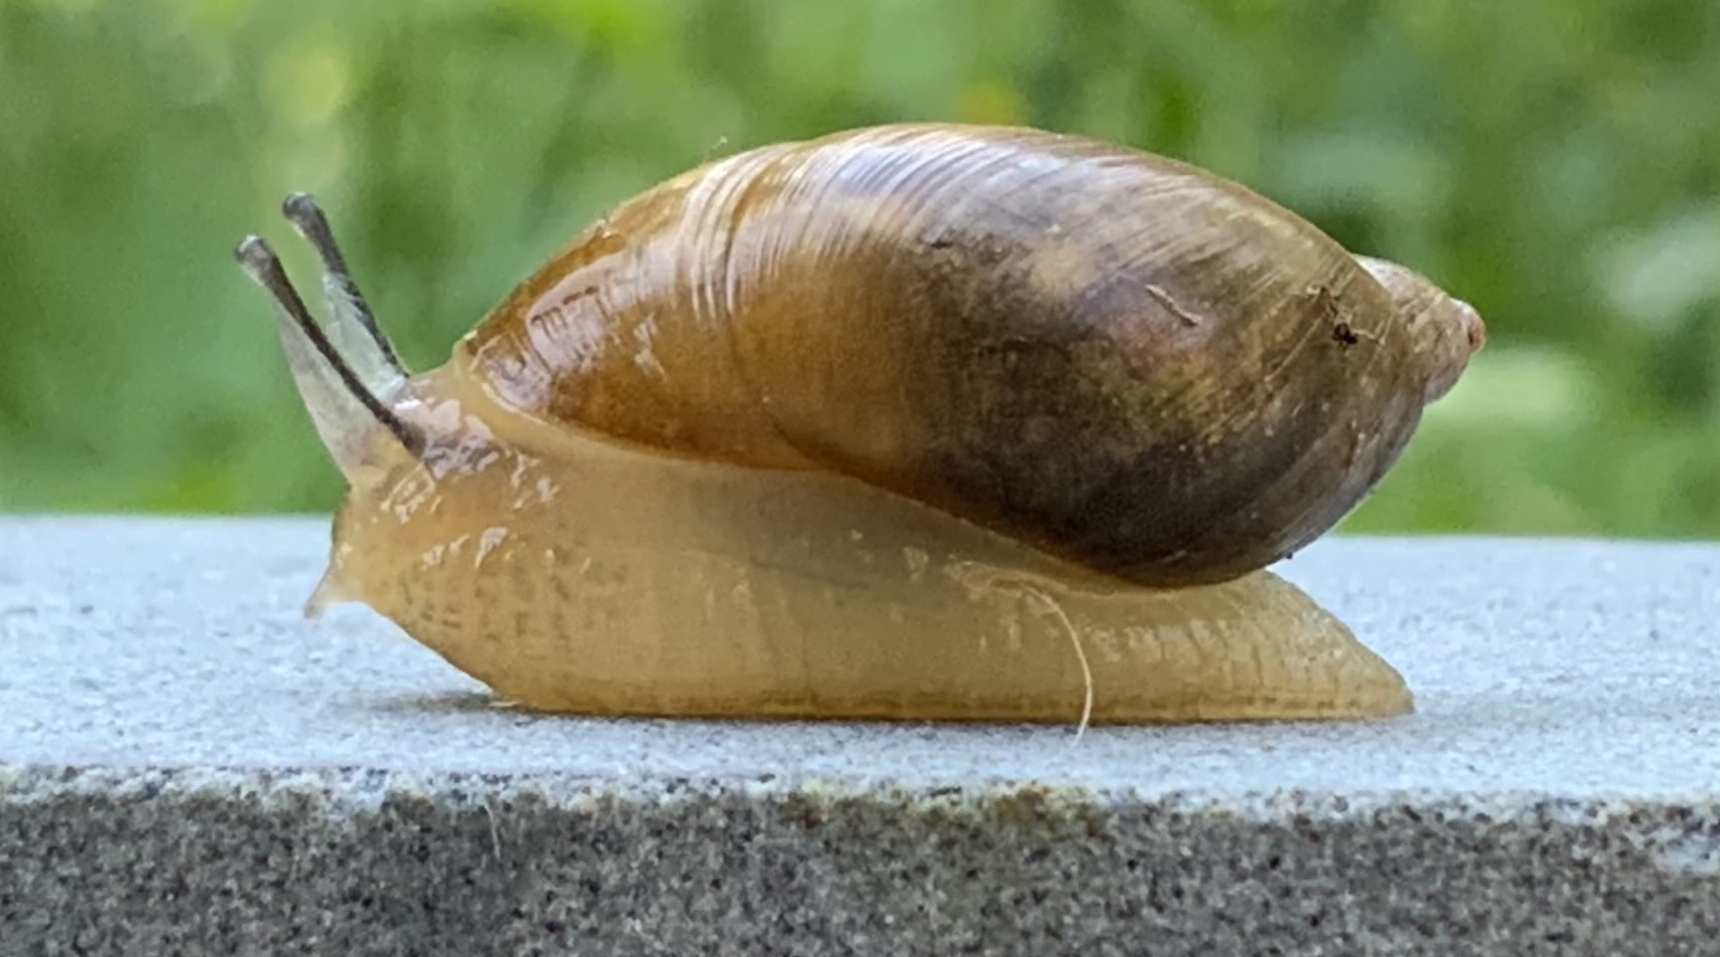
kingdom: Animalia
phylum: Mollusca
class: Gastropoda
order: Stylommatophora
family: Succineidae
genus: Succinea
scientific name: Succinea putris
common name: European ambersnail
